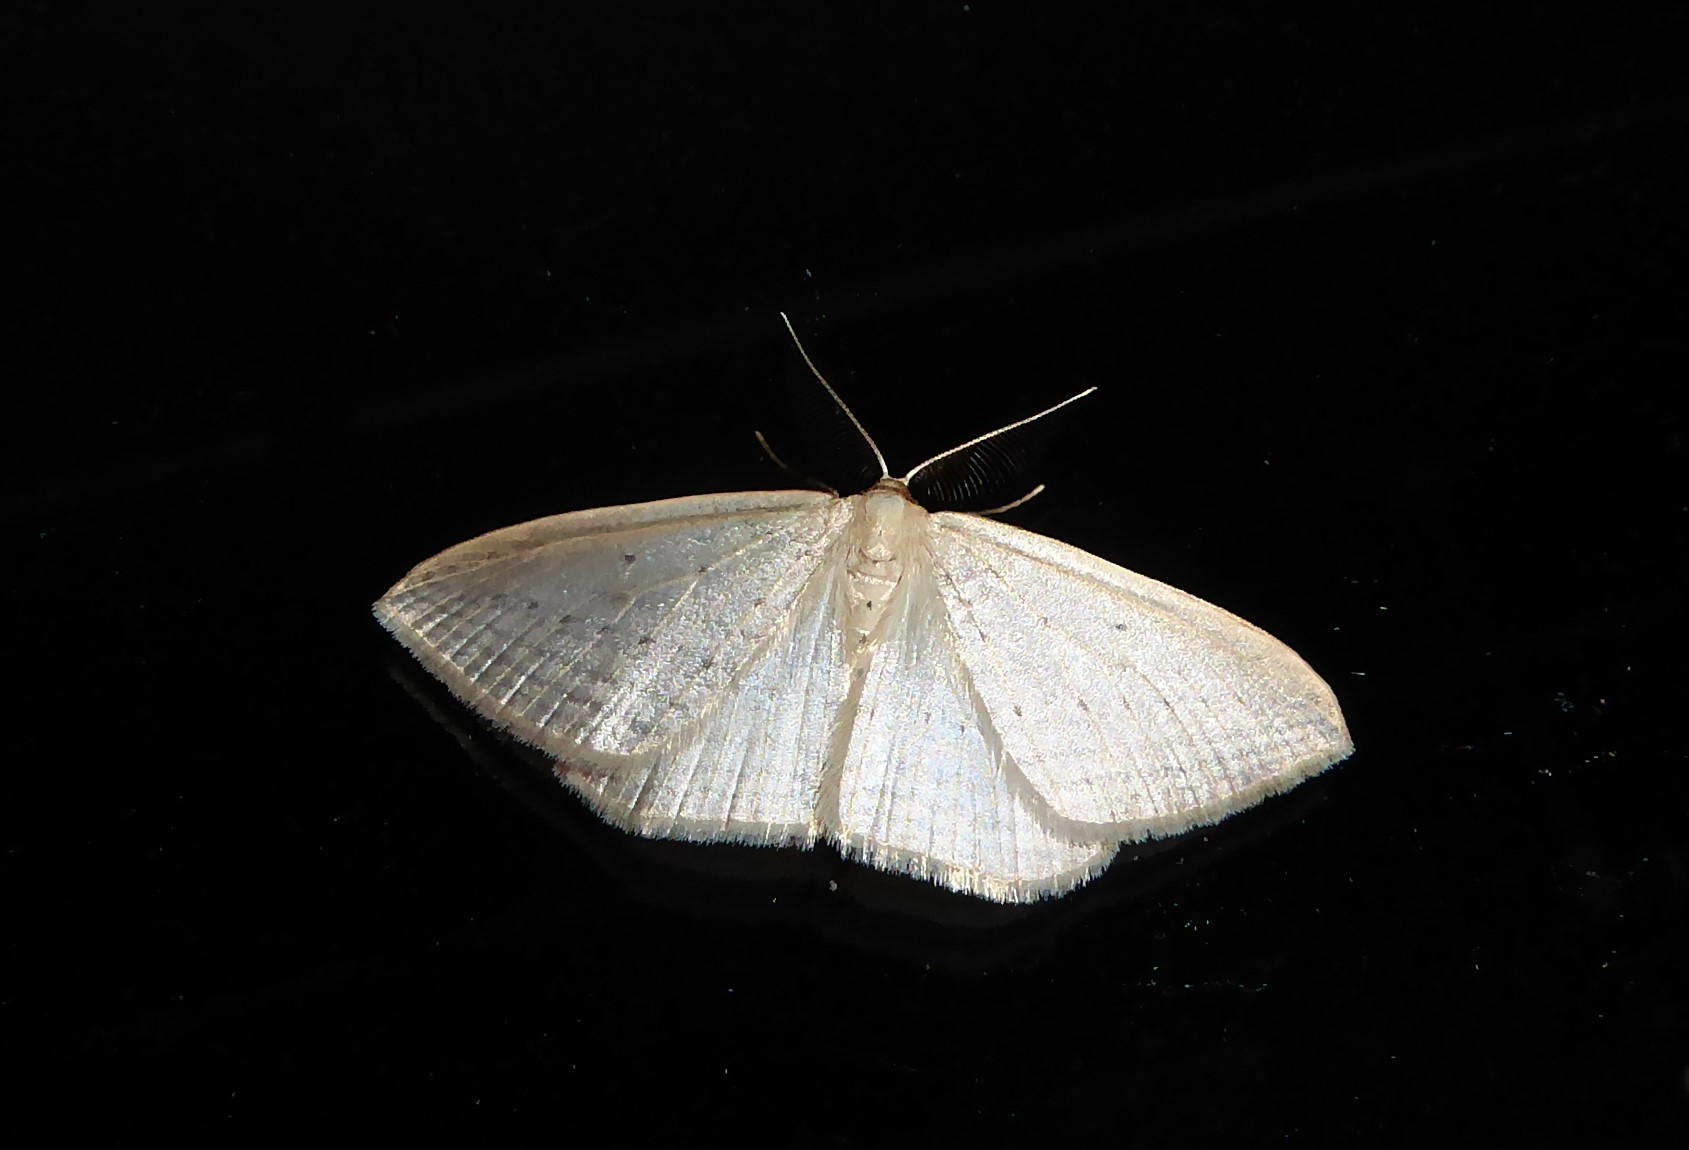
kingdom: Animalia
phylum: Arthropoda
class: Insecta
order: Lepidoptera
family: Geometridae
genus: Orthoclydon
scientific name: Orthoclydon praefectata
